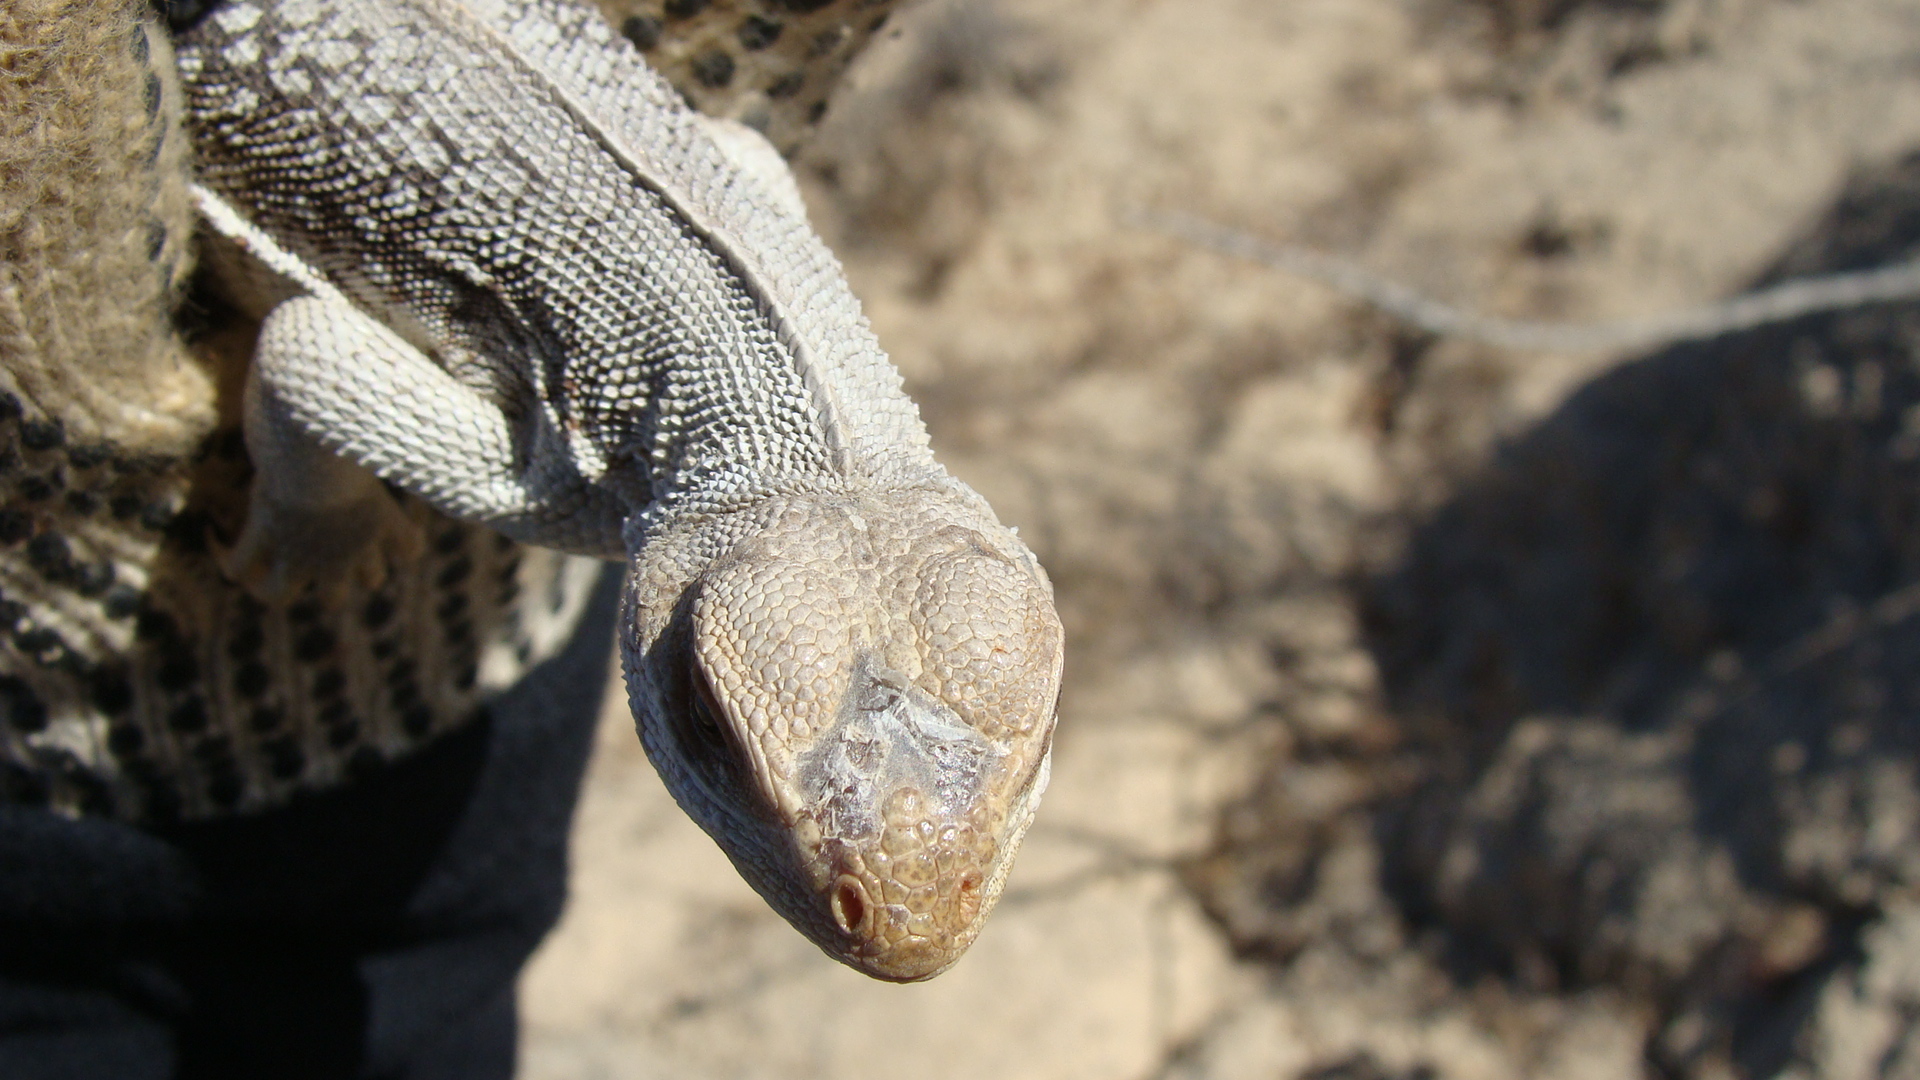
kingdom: Animalia
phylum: Chordata
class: Squamata
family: Iguanidae
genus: Dipsosaurus
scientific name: Dipsosaurus dorsalis
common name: Desert iguana
